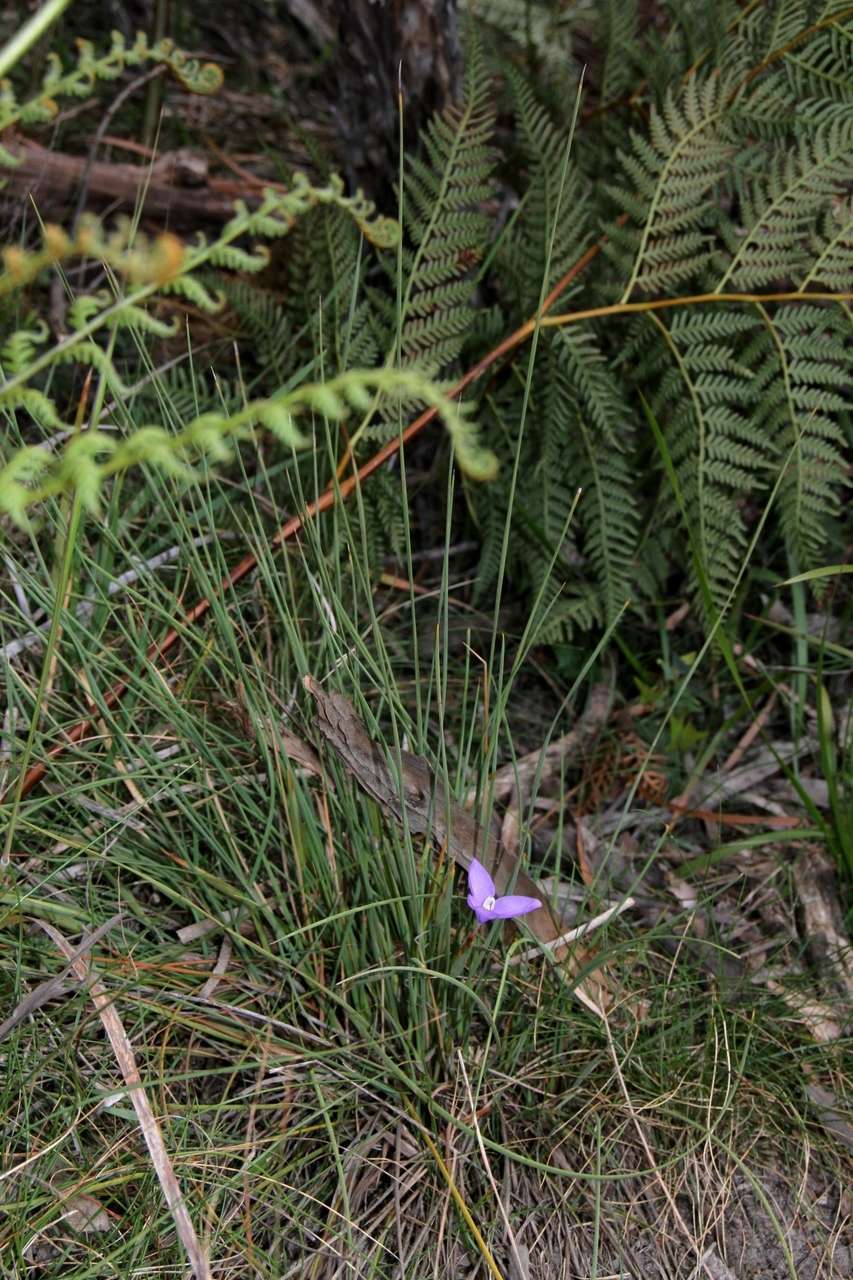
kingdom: Plantae
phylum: Tracheophyta
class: Liliopsida
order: Asparagales
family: Iridaceae
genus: Patersonia
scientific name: Patersonia fragilis
